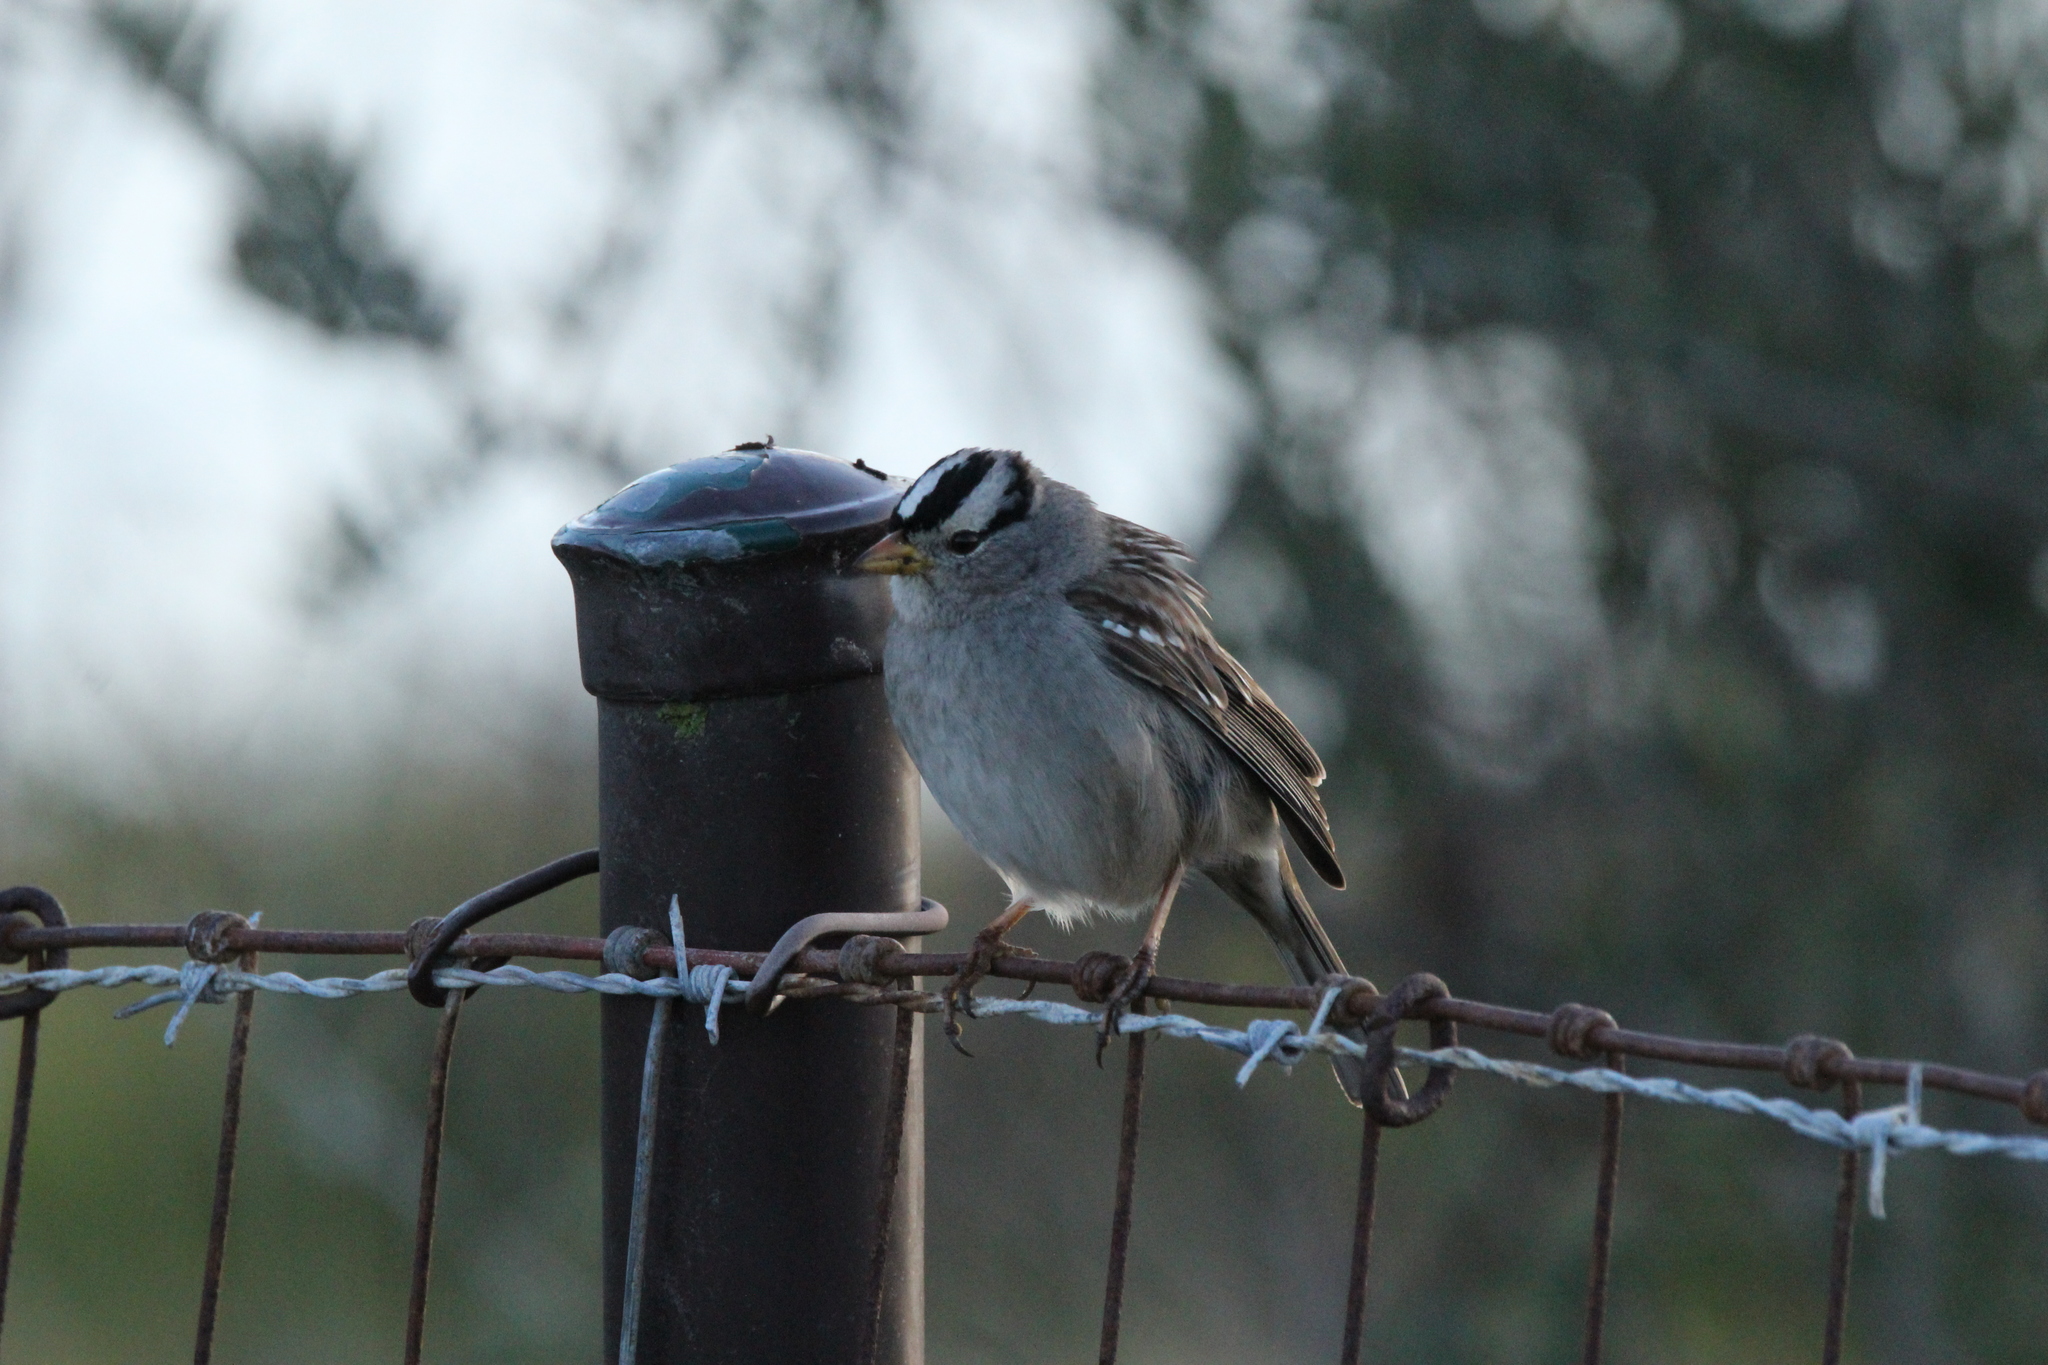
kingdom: Animalia
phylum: Chordata
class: Aves
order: Passeriformes
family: Passerellidae
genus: Zonotrichia
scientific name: Zonotrichia leucophrys
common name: White-crowned sparrow
